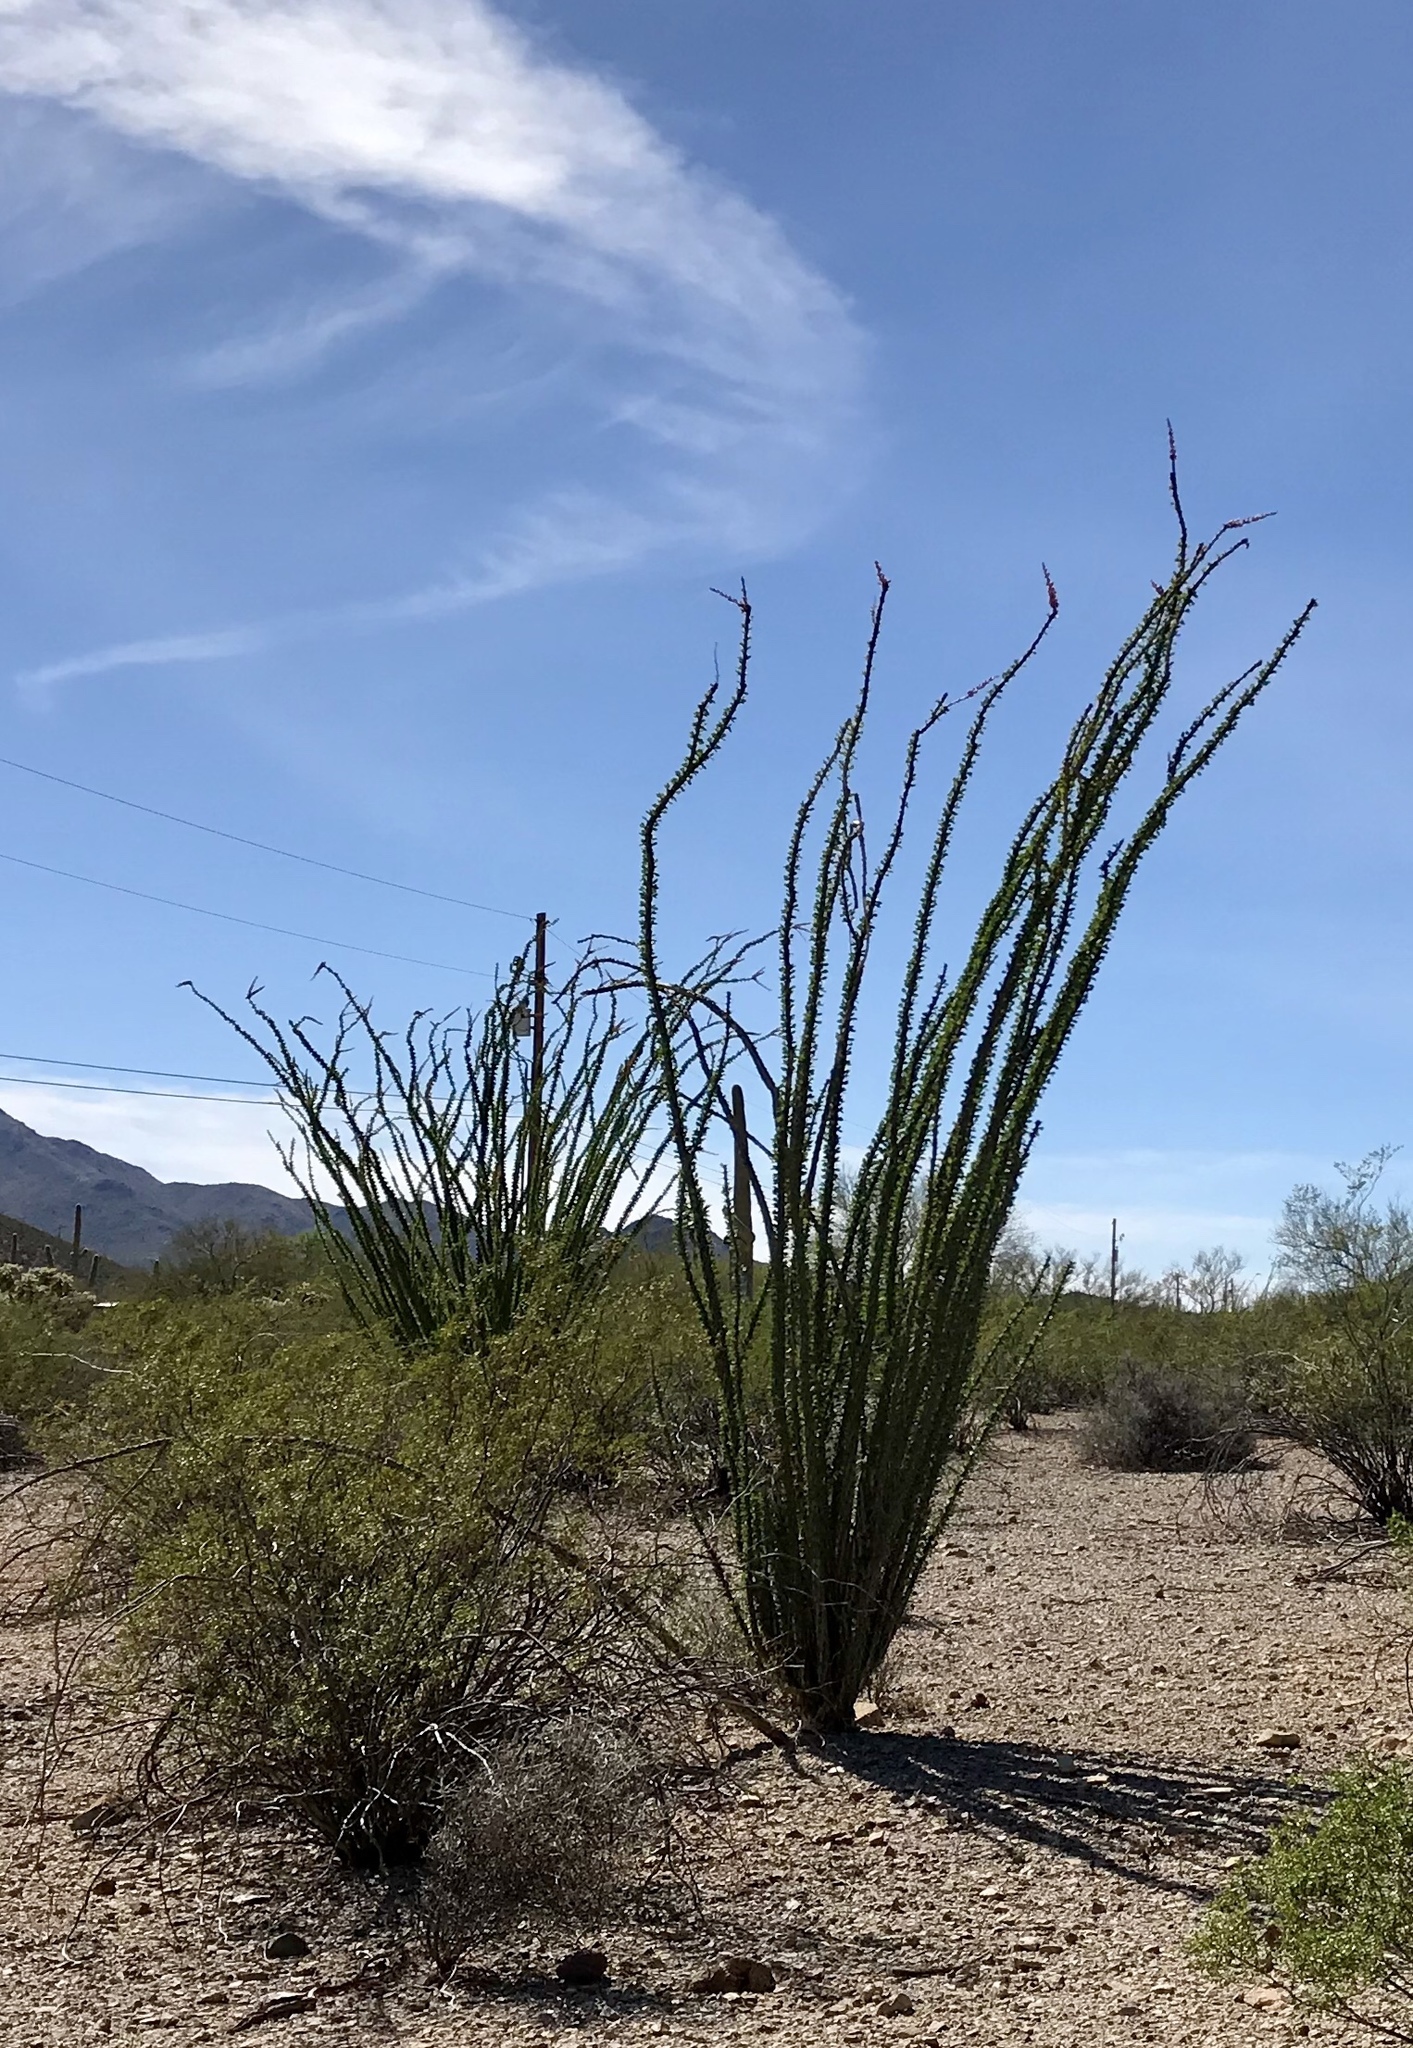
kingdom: Plantae
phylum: Tracheophyta
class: Magnoliopsida
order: Ericales
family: Fouquieriaceae
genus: Fouquieria
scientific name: Fouquieria splendens
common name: Vine-cactus
